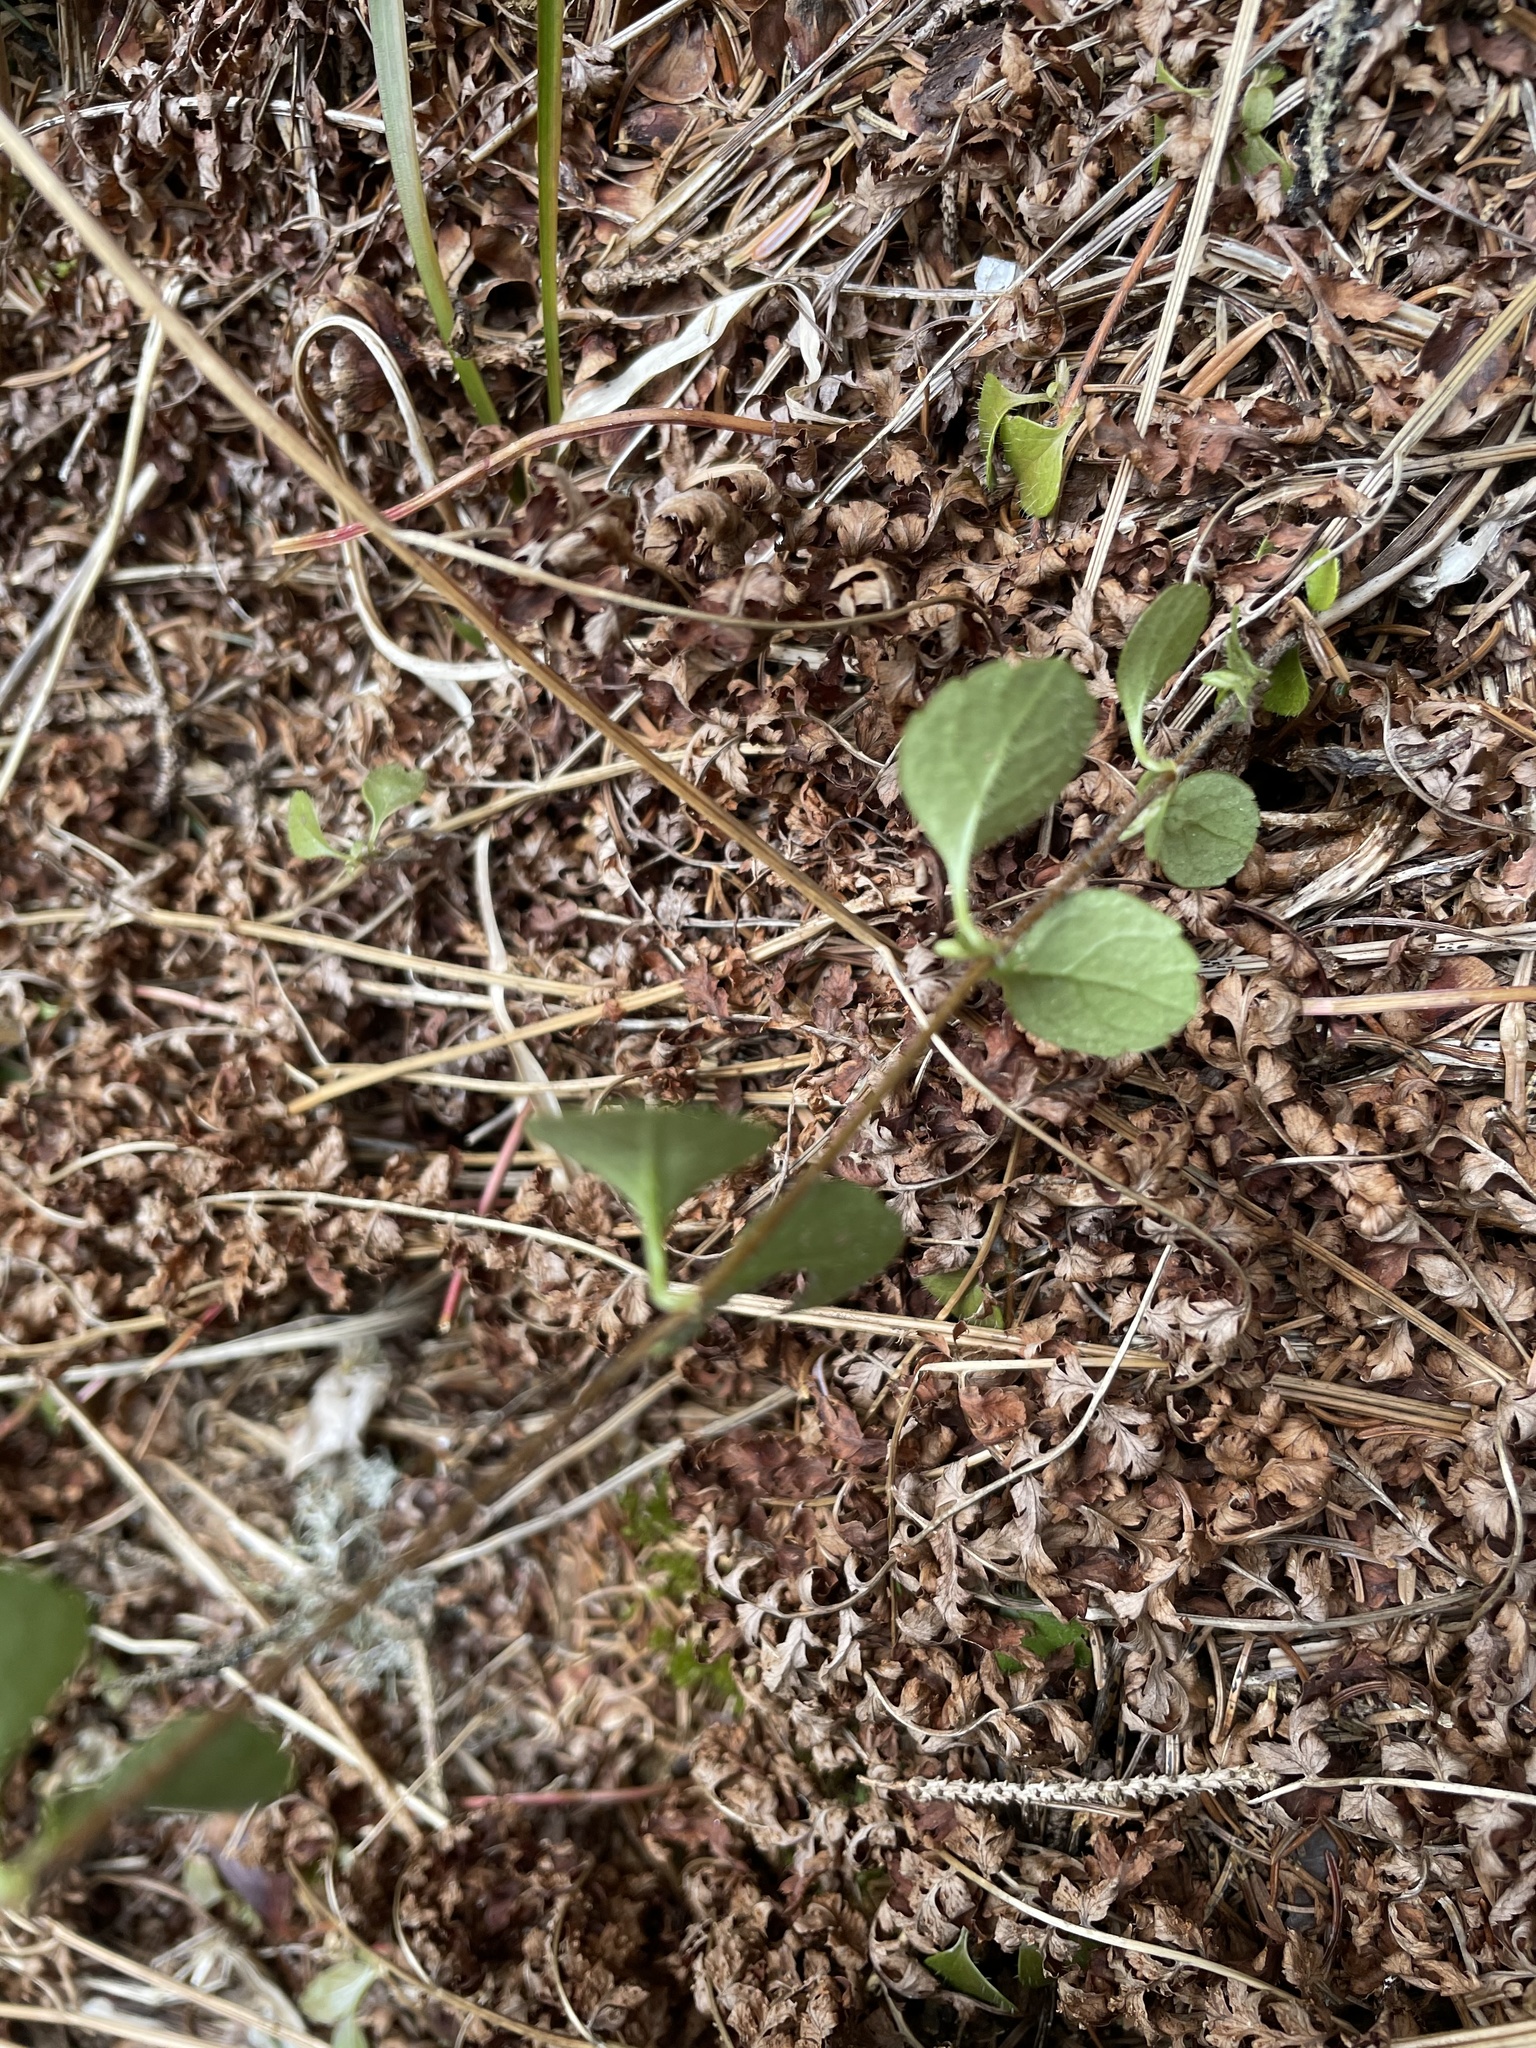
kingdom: Plantae
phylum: Tracheophyta
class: Magnoliopsida
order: Dipsacales
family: Caprifoliaceae
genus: Linnaea
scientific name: Linnaea borealis
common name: Twinflower
